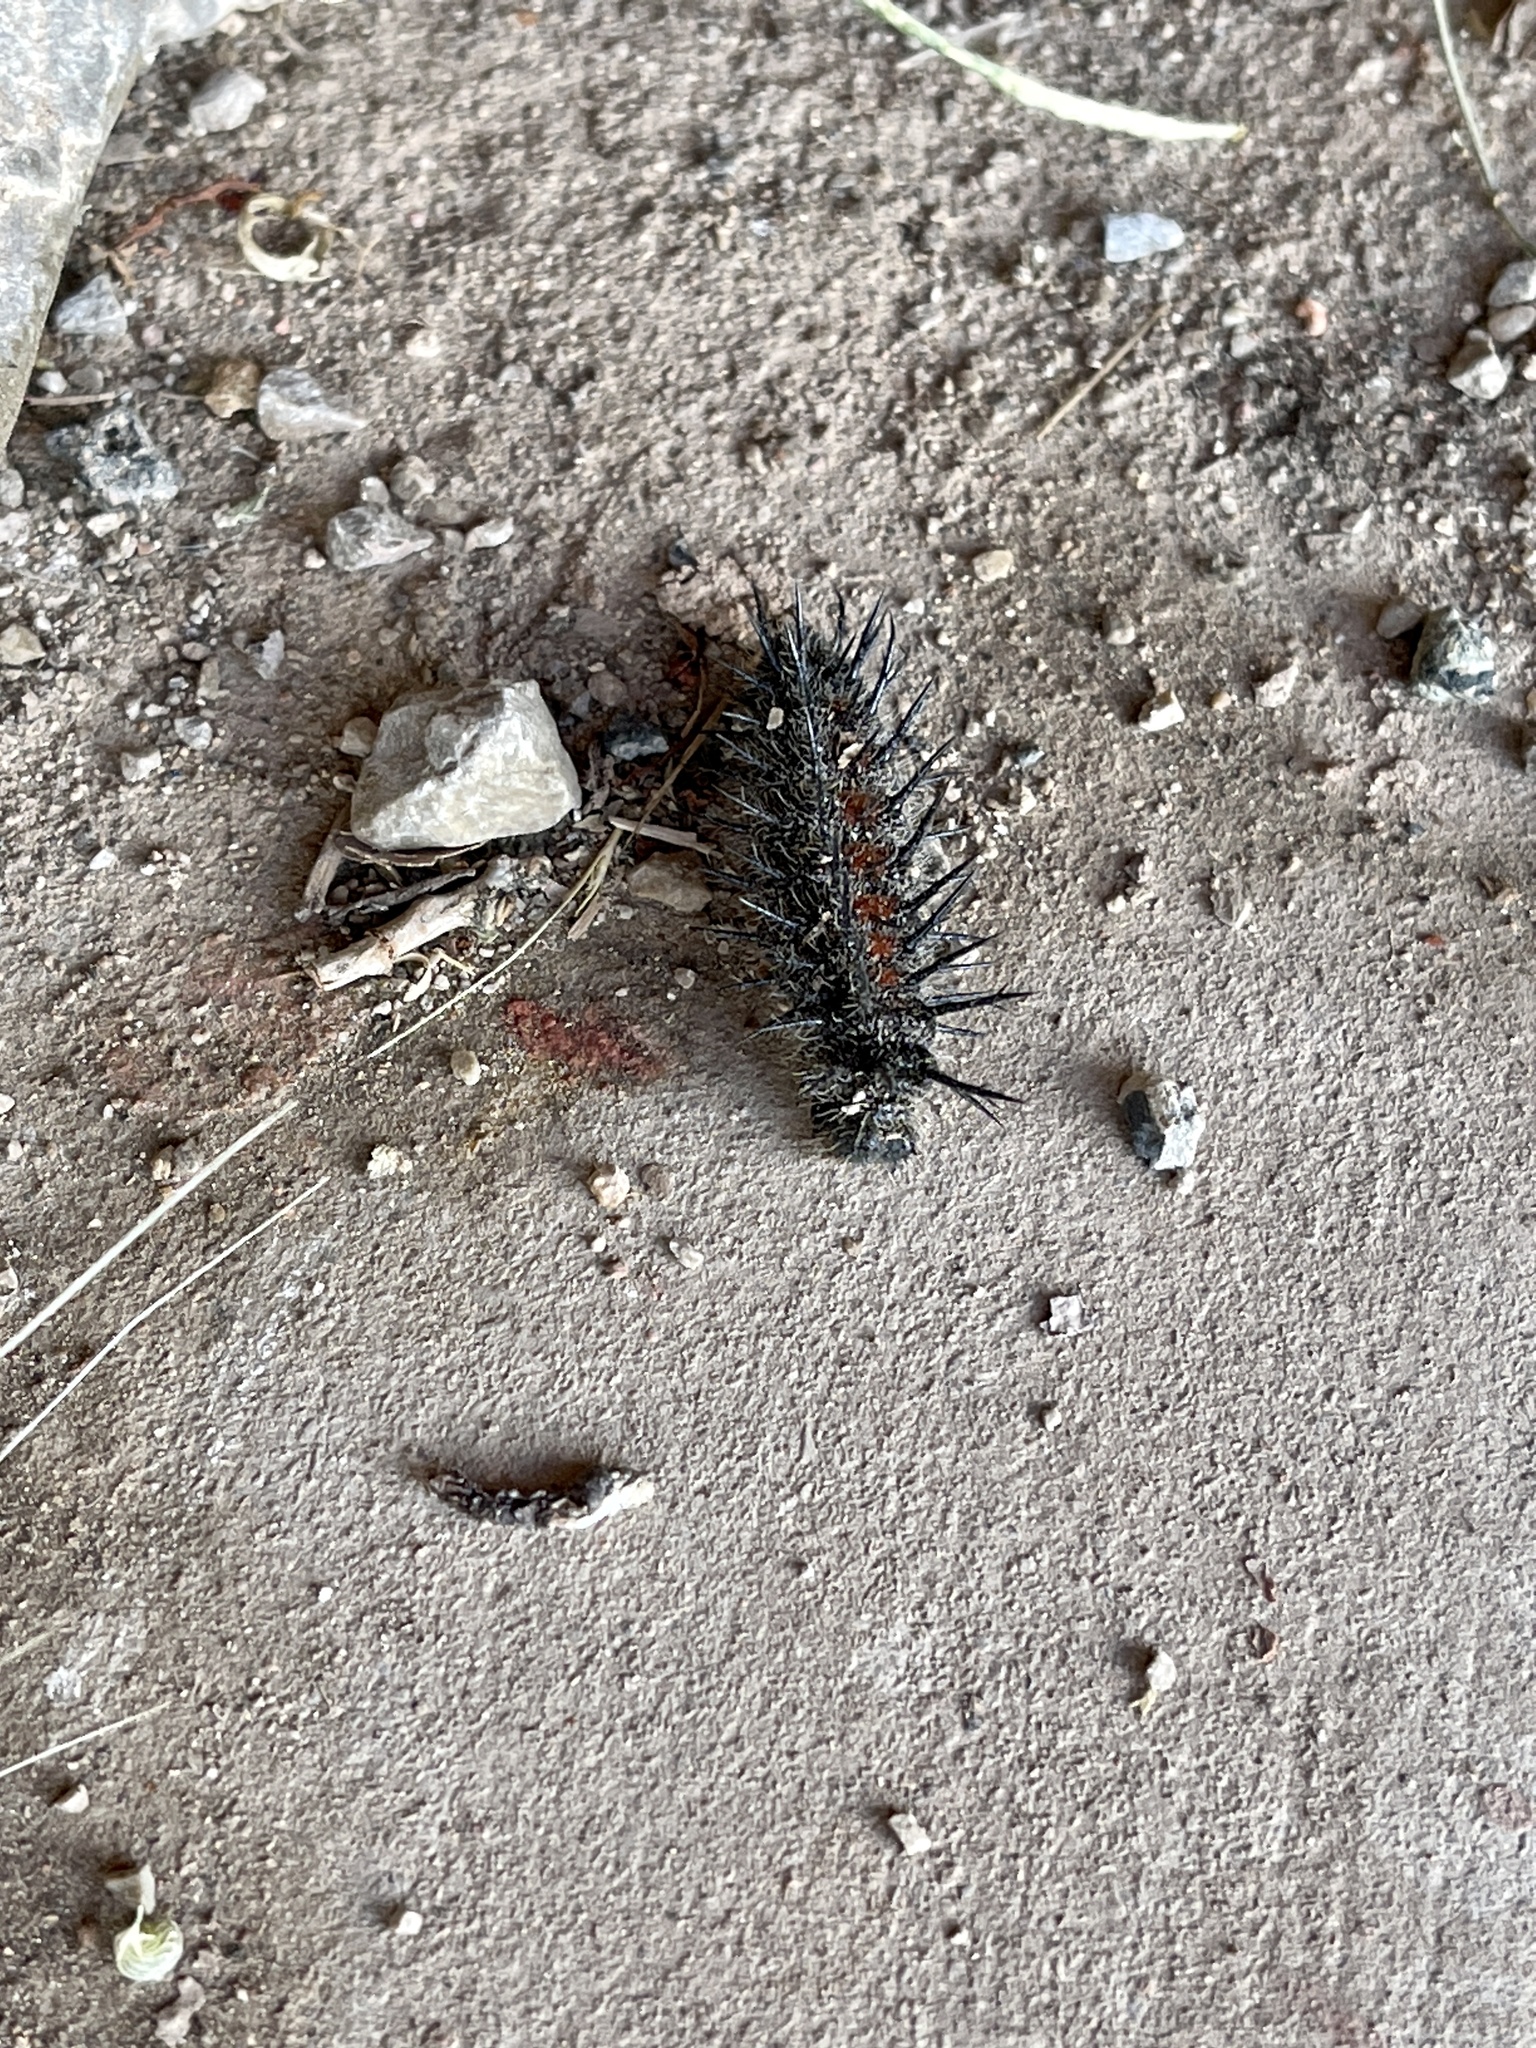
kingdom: Animalia
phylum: Arthropoda
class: Insecta
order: Lepidoptera
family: Nymphalidae
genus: Nymphalis
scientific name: Nymphalis antiopa
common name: Camberwell beauty
